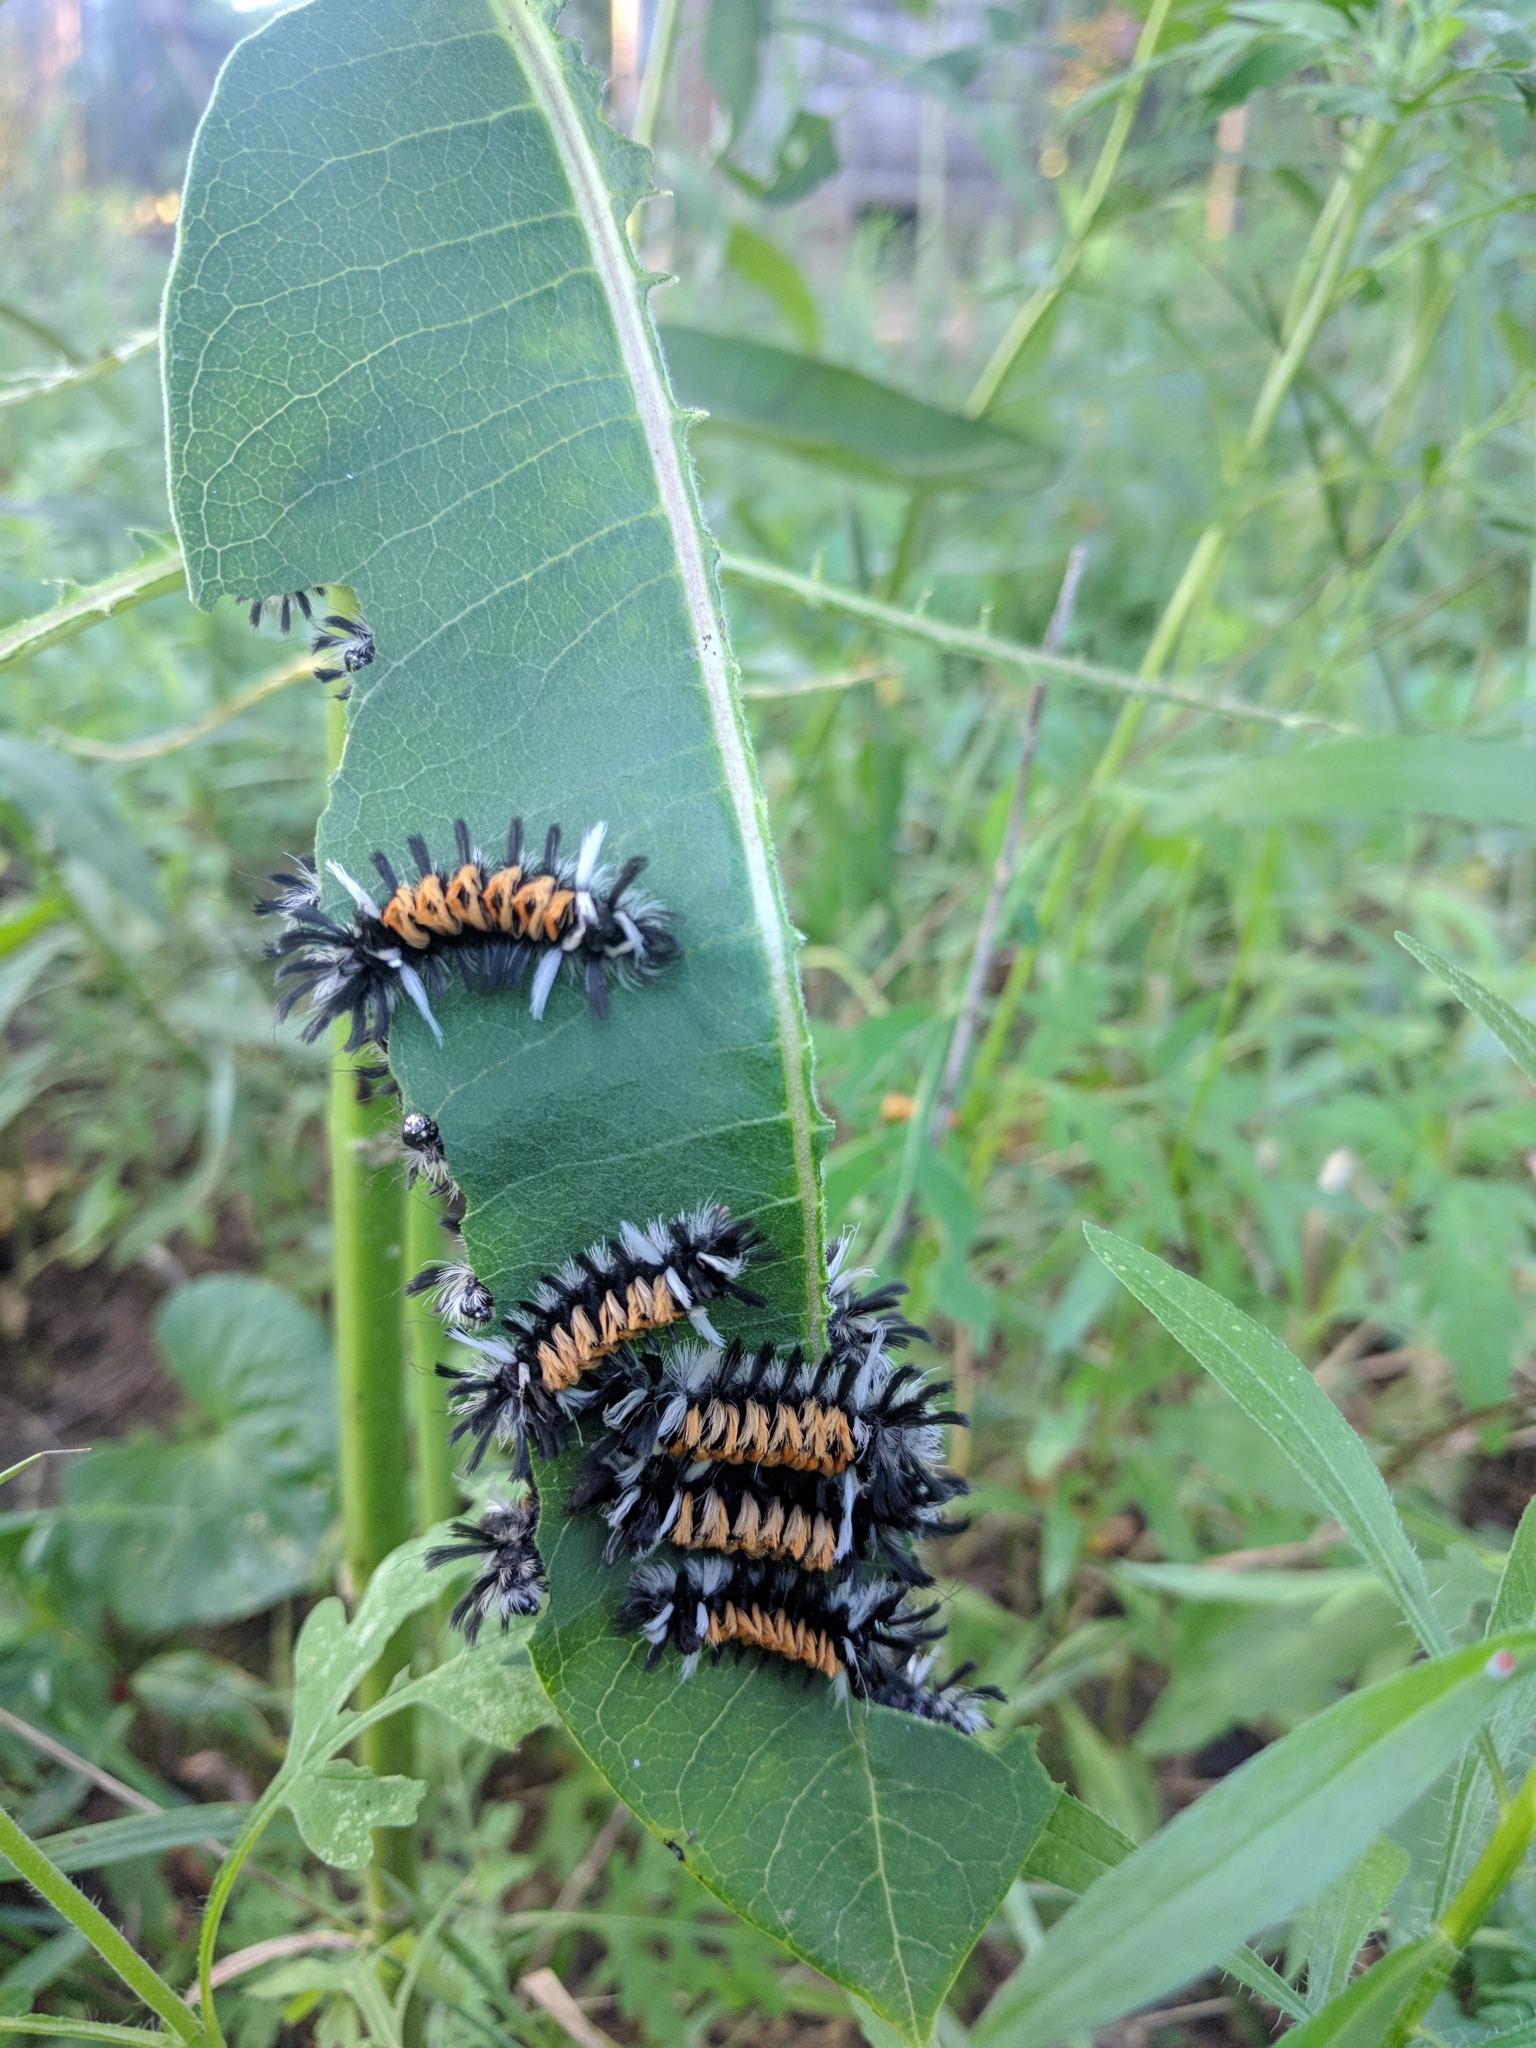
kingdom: Animalia
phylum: Arthropoda
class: Insecta
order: Lepidoptera
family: Erebidae
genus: Euchaetes
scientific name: Euchaetes egle
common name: Milkweed tussock moth
